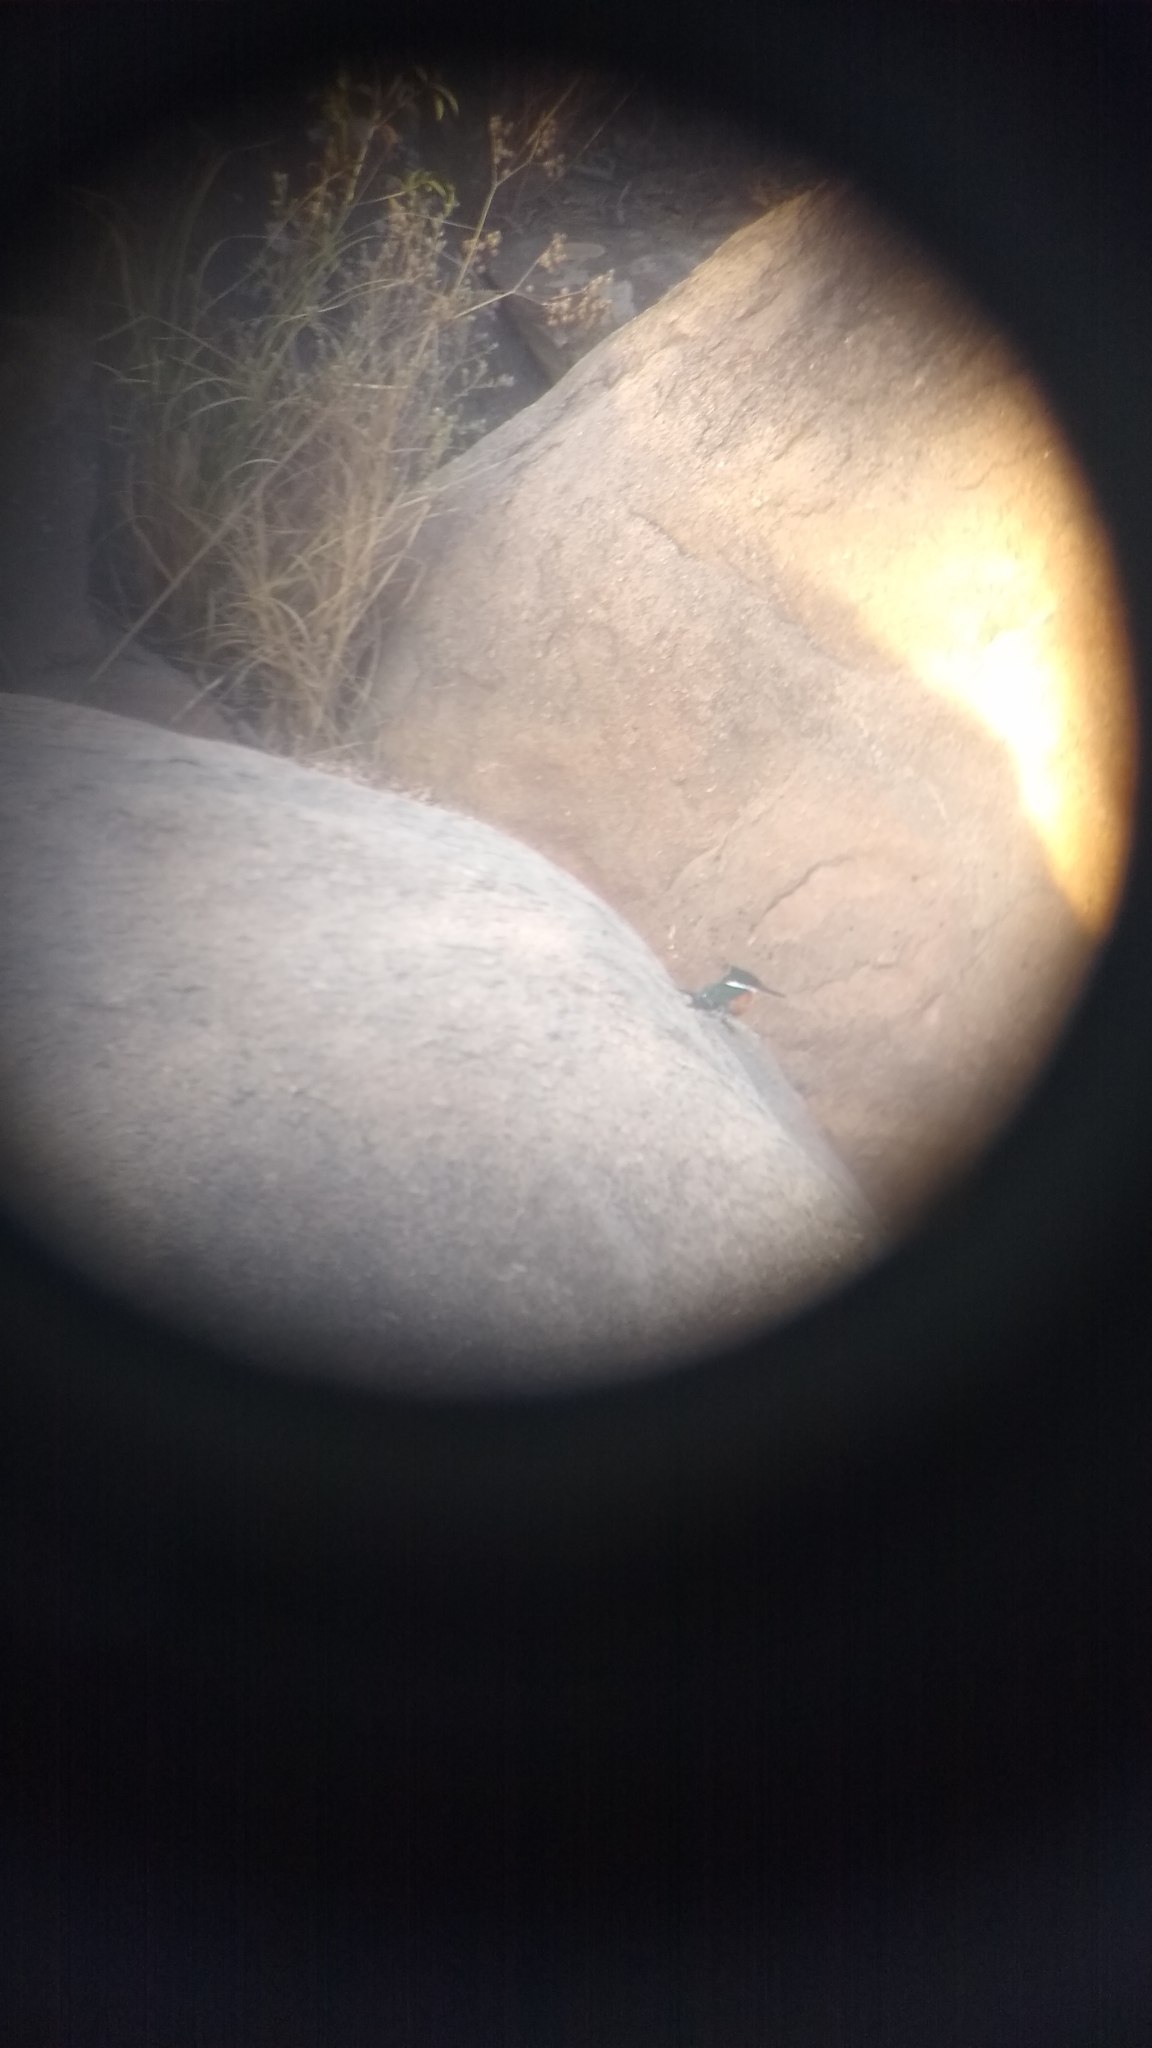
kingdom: Animalia
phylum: Chordata
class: Aves
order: Coraciiformes
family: Alcedinidae
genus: Chloroceryle
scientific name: Chloroceryle americana
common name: Green kingfisher
